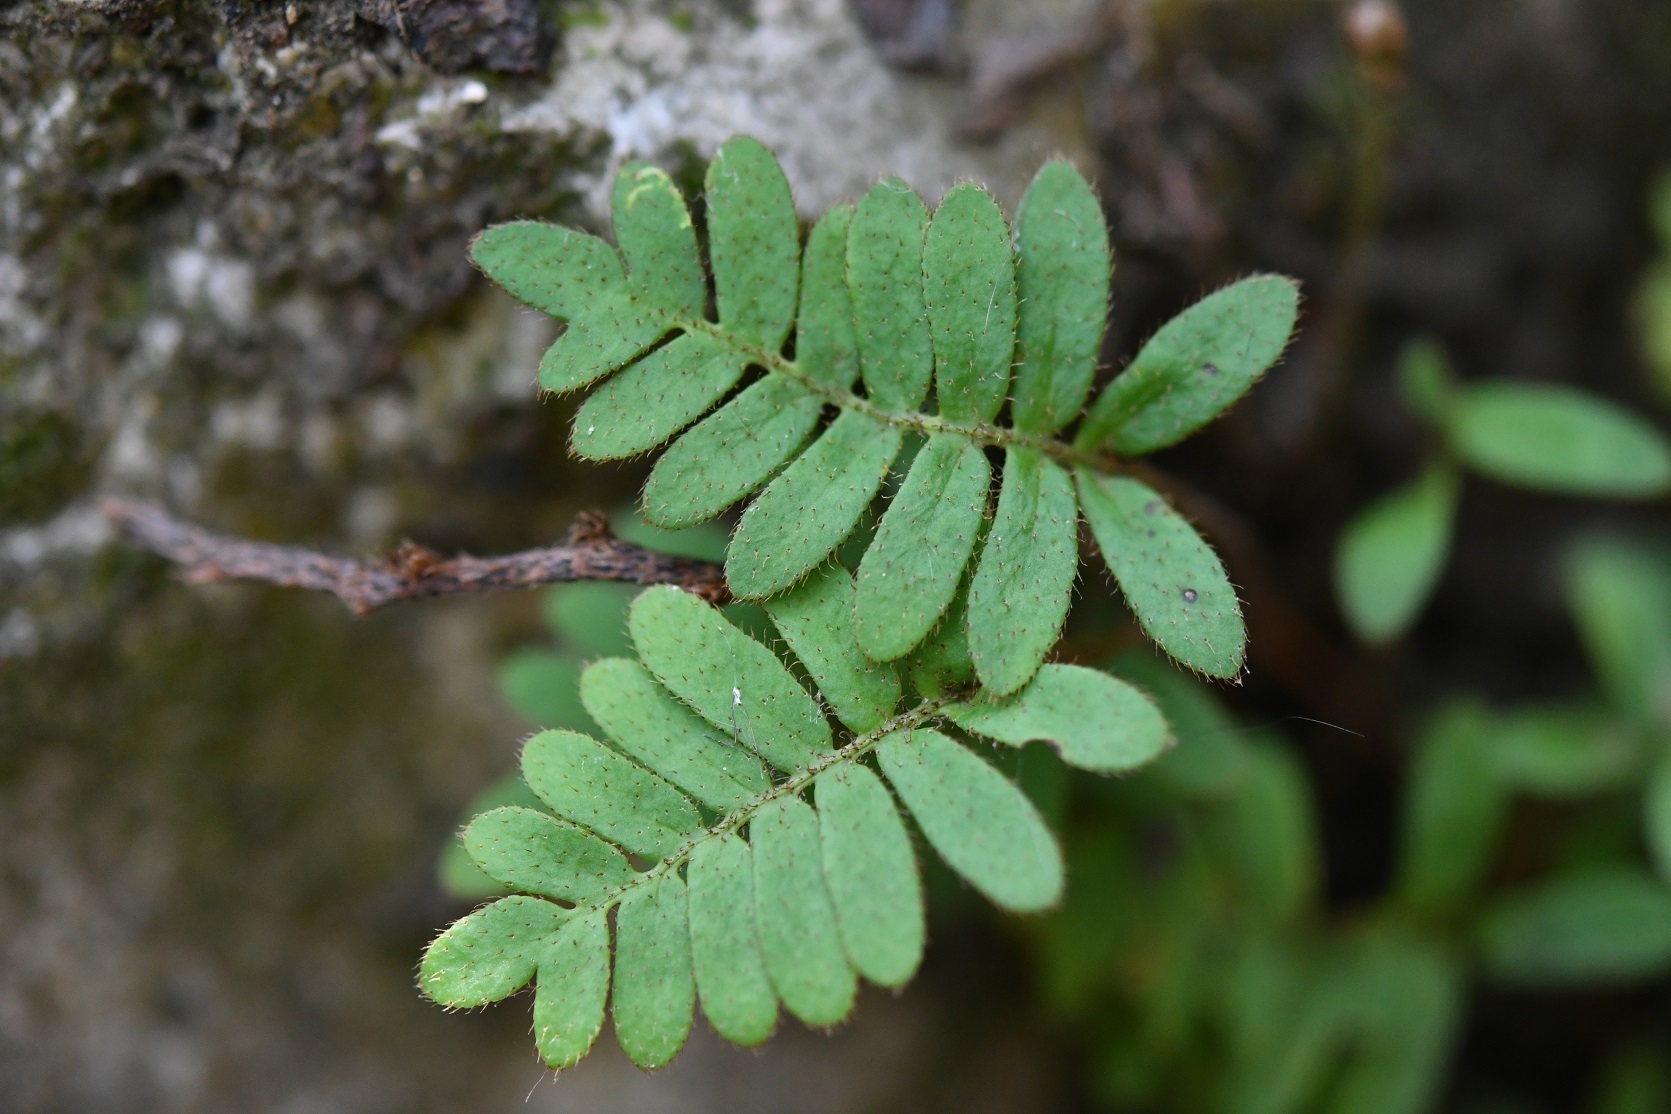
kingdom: Plantae
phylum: Tracheophyta
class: Polypodiopsida
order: Polypodiales
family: Polypodiaceae
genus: Pleopeltis
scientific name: Pleopeltis polypodioides
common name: Resurrection fern
